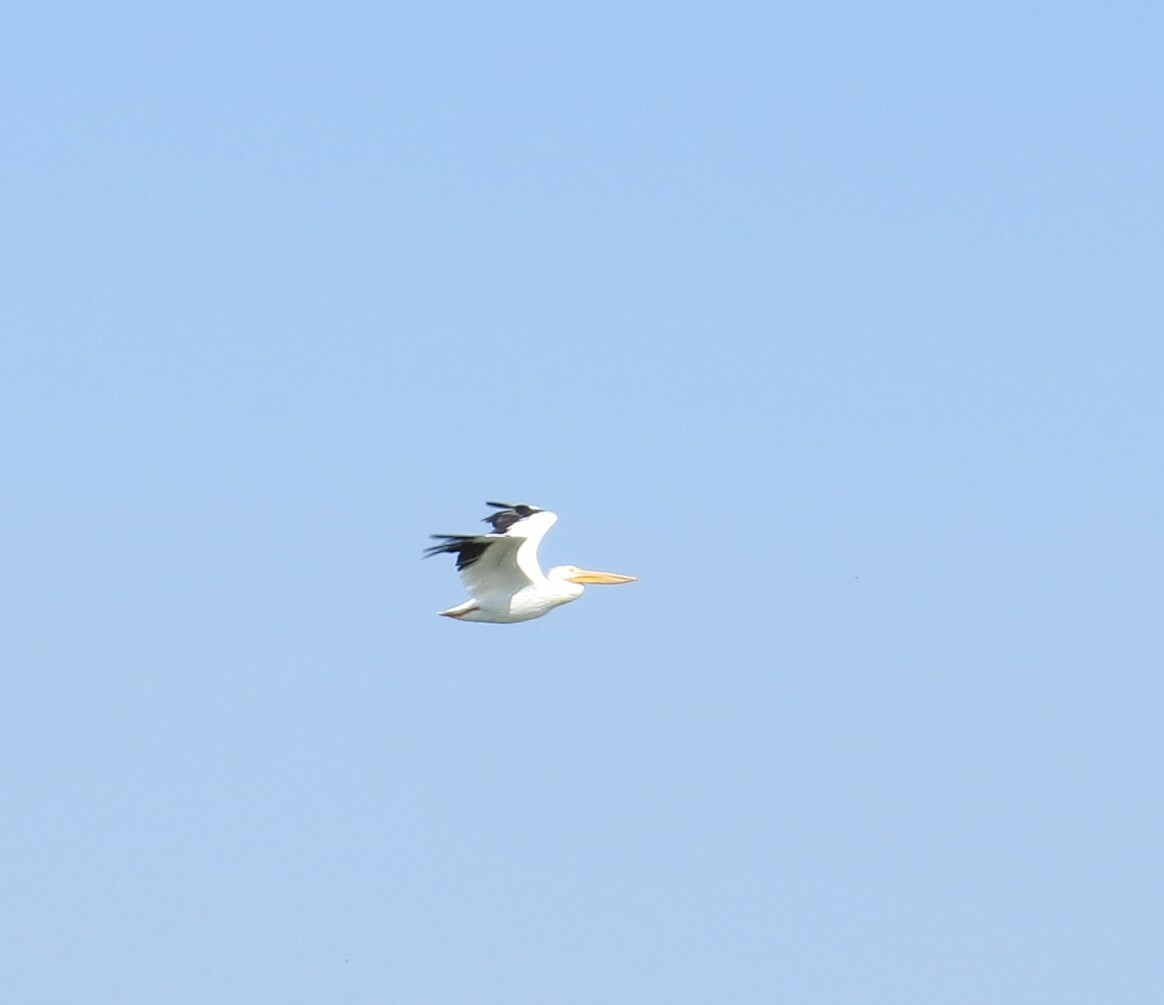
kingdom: Animalia
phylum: Chordata
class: Aves
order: Pelecaniformes
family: Pelecanidae
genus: Pelecanus
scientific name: Pelecanus erythrorhynchos
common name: American white pelican
